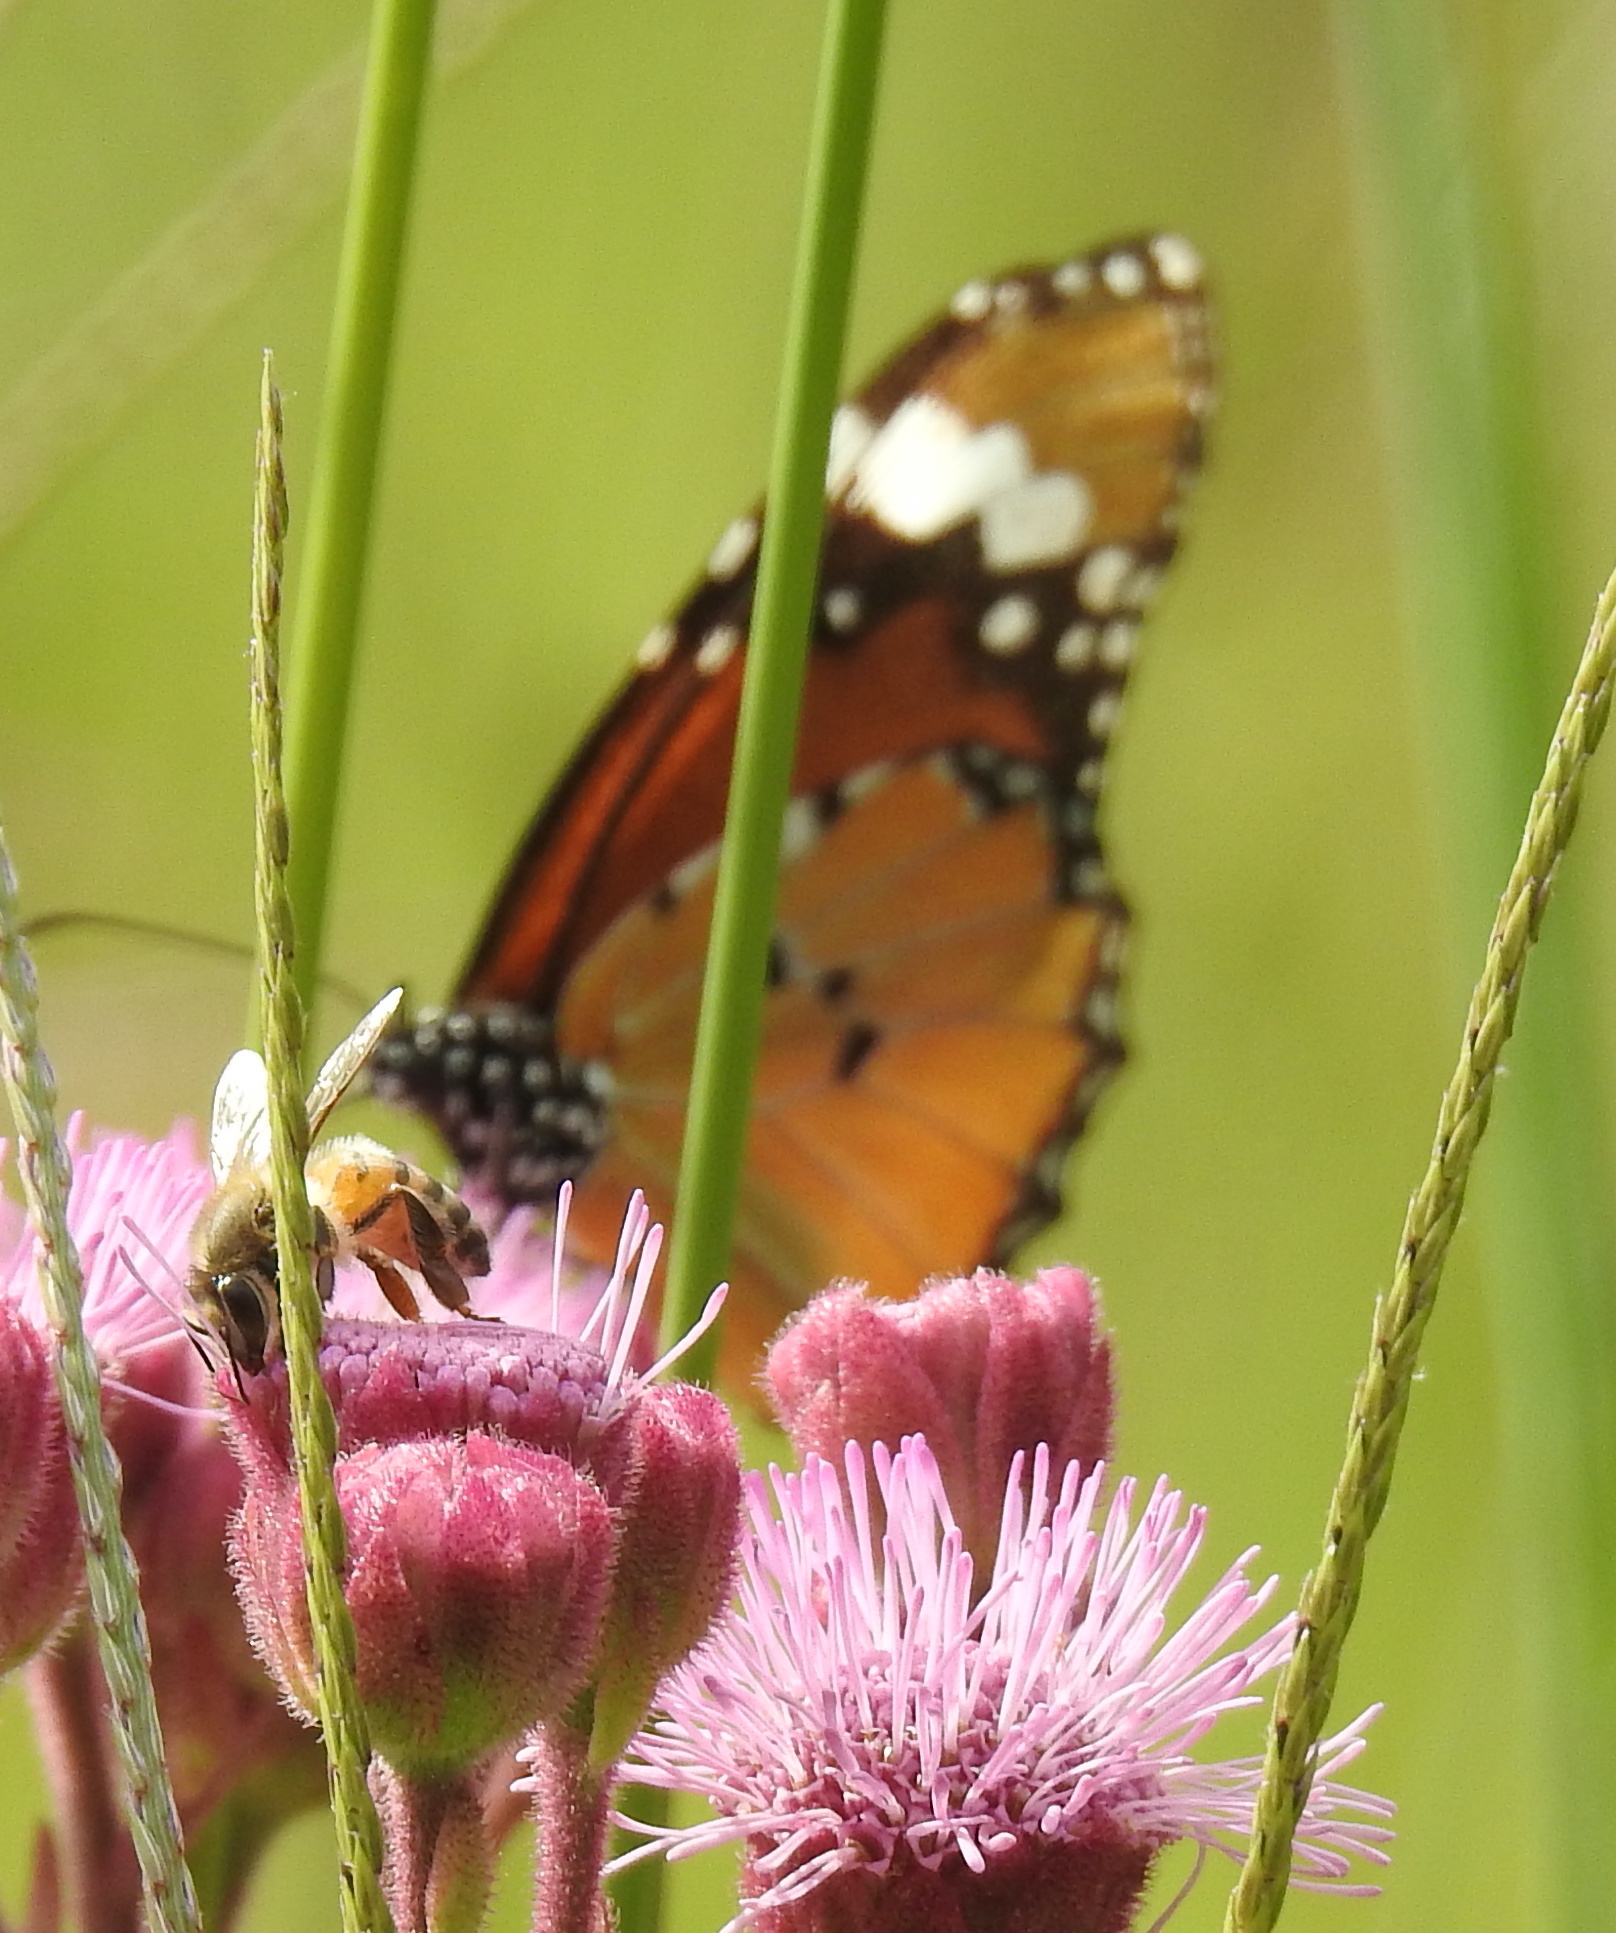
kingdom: Animalia
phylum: Arthropoda
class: Insecta
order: Lepidoptera
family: Nymphalidae
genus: Danaus
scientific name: Danaus chrysippus
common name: Plain tiger
